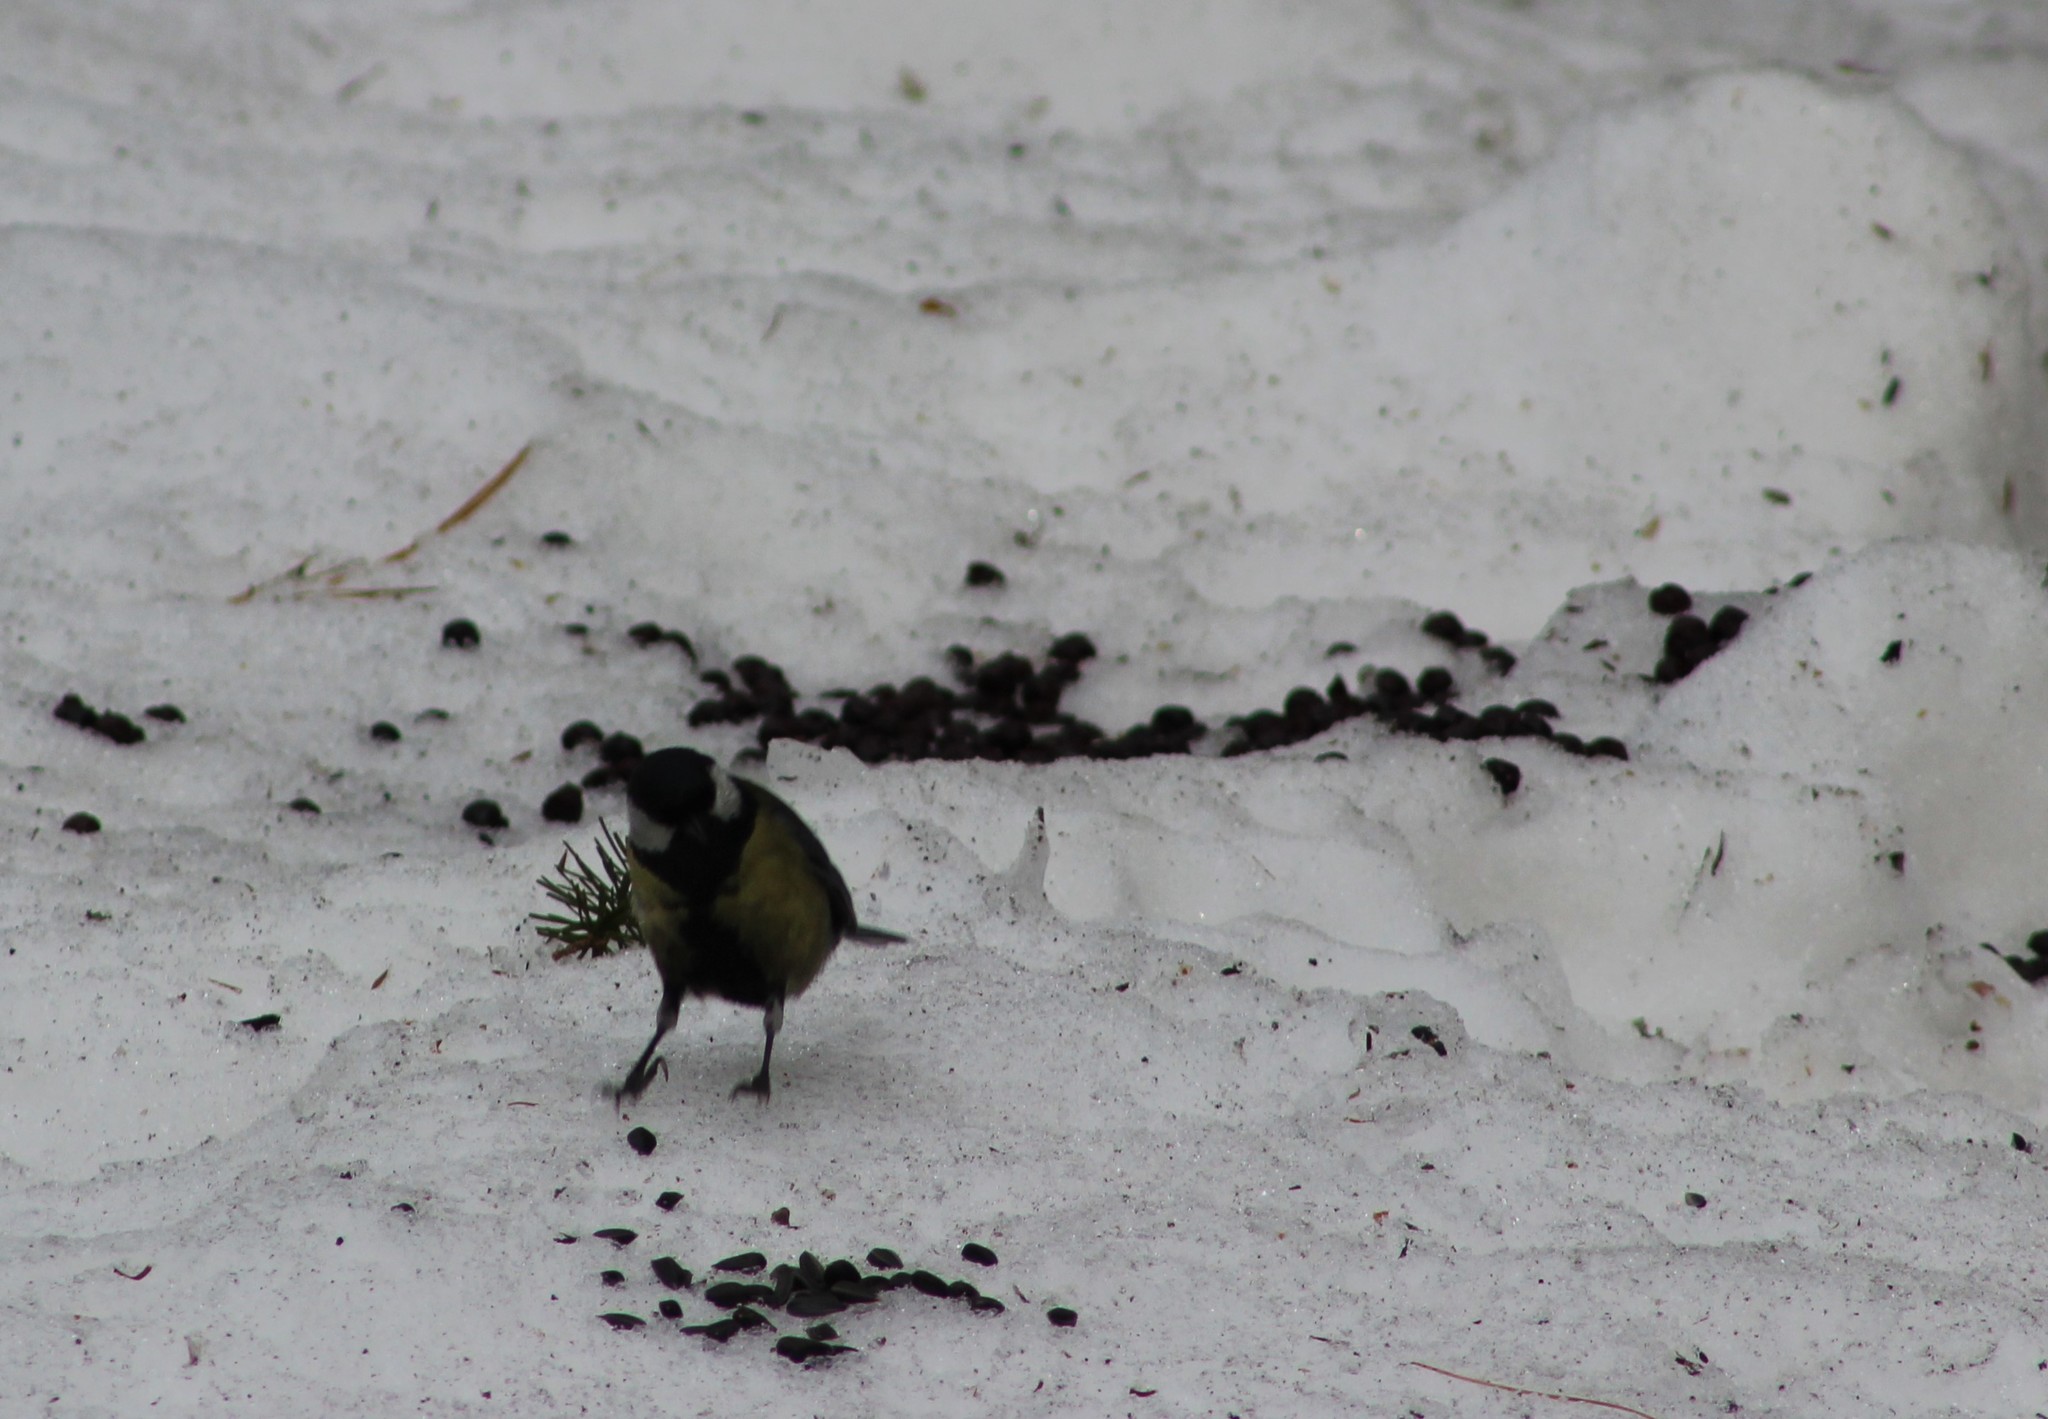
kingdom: Animalia
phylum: Chordata
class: Aves
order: Passeriformes
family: Paridae
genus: Parus
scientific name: Parus major
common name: Great tit
